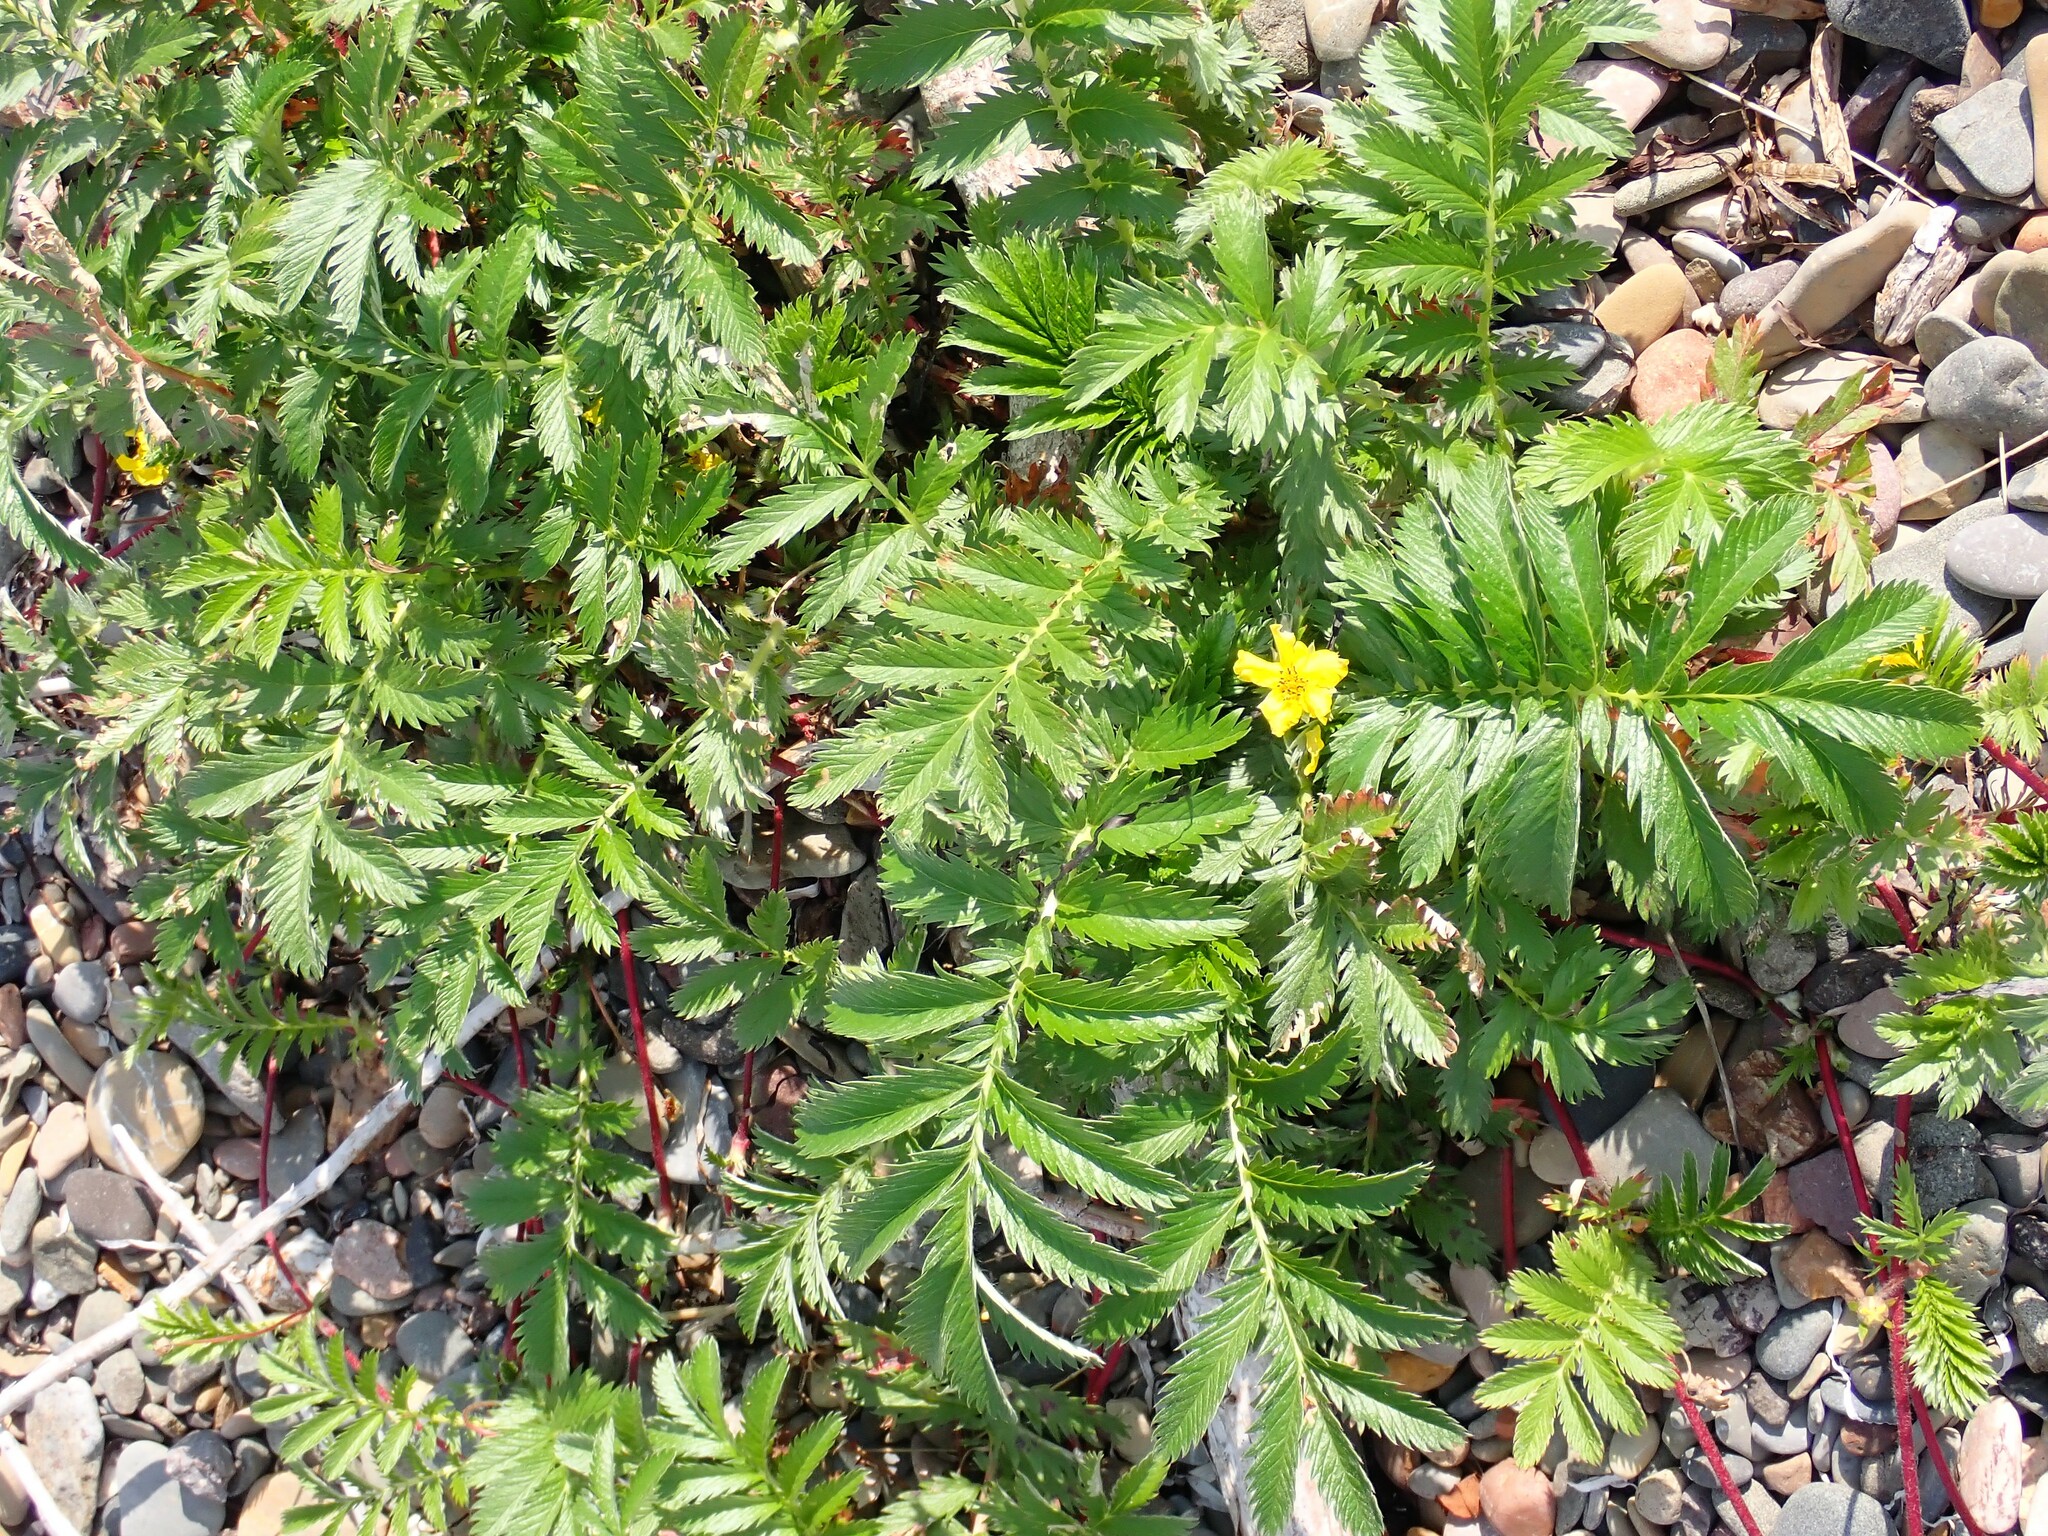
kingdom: Plantae
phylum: Tracheophyta
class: Magnoliopsida
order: Rosales
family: Rosaceae
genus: Argentina
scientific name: Argentina anserina
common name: Common silverweed
